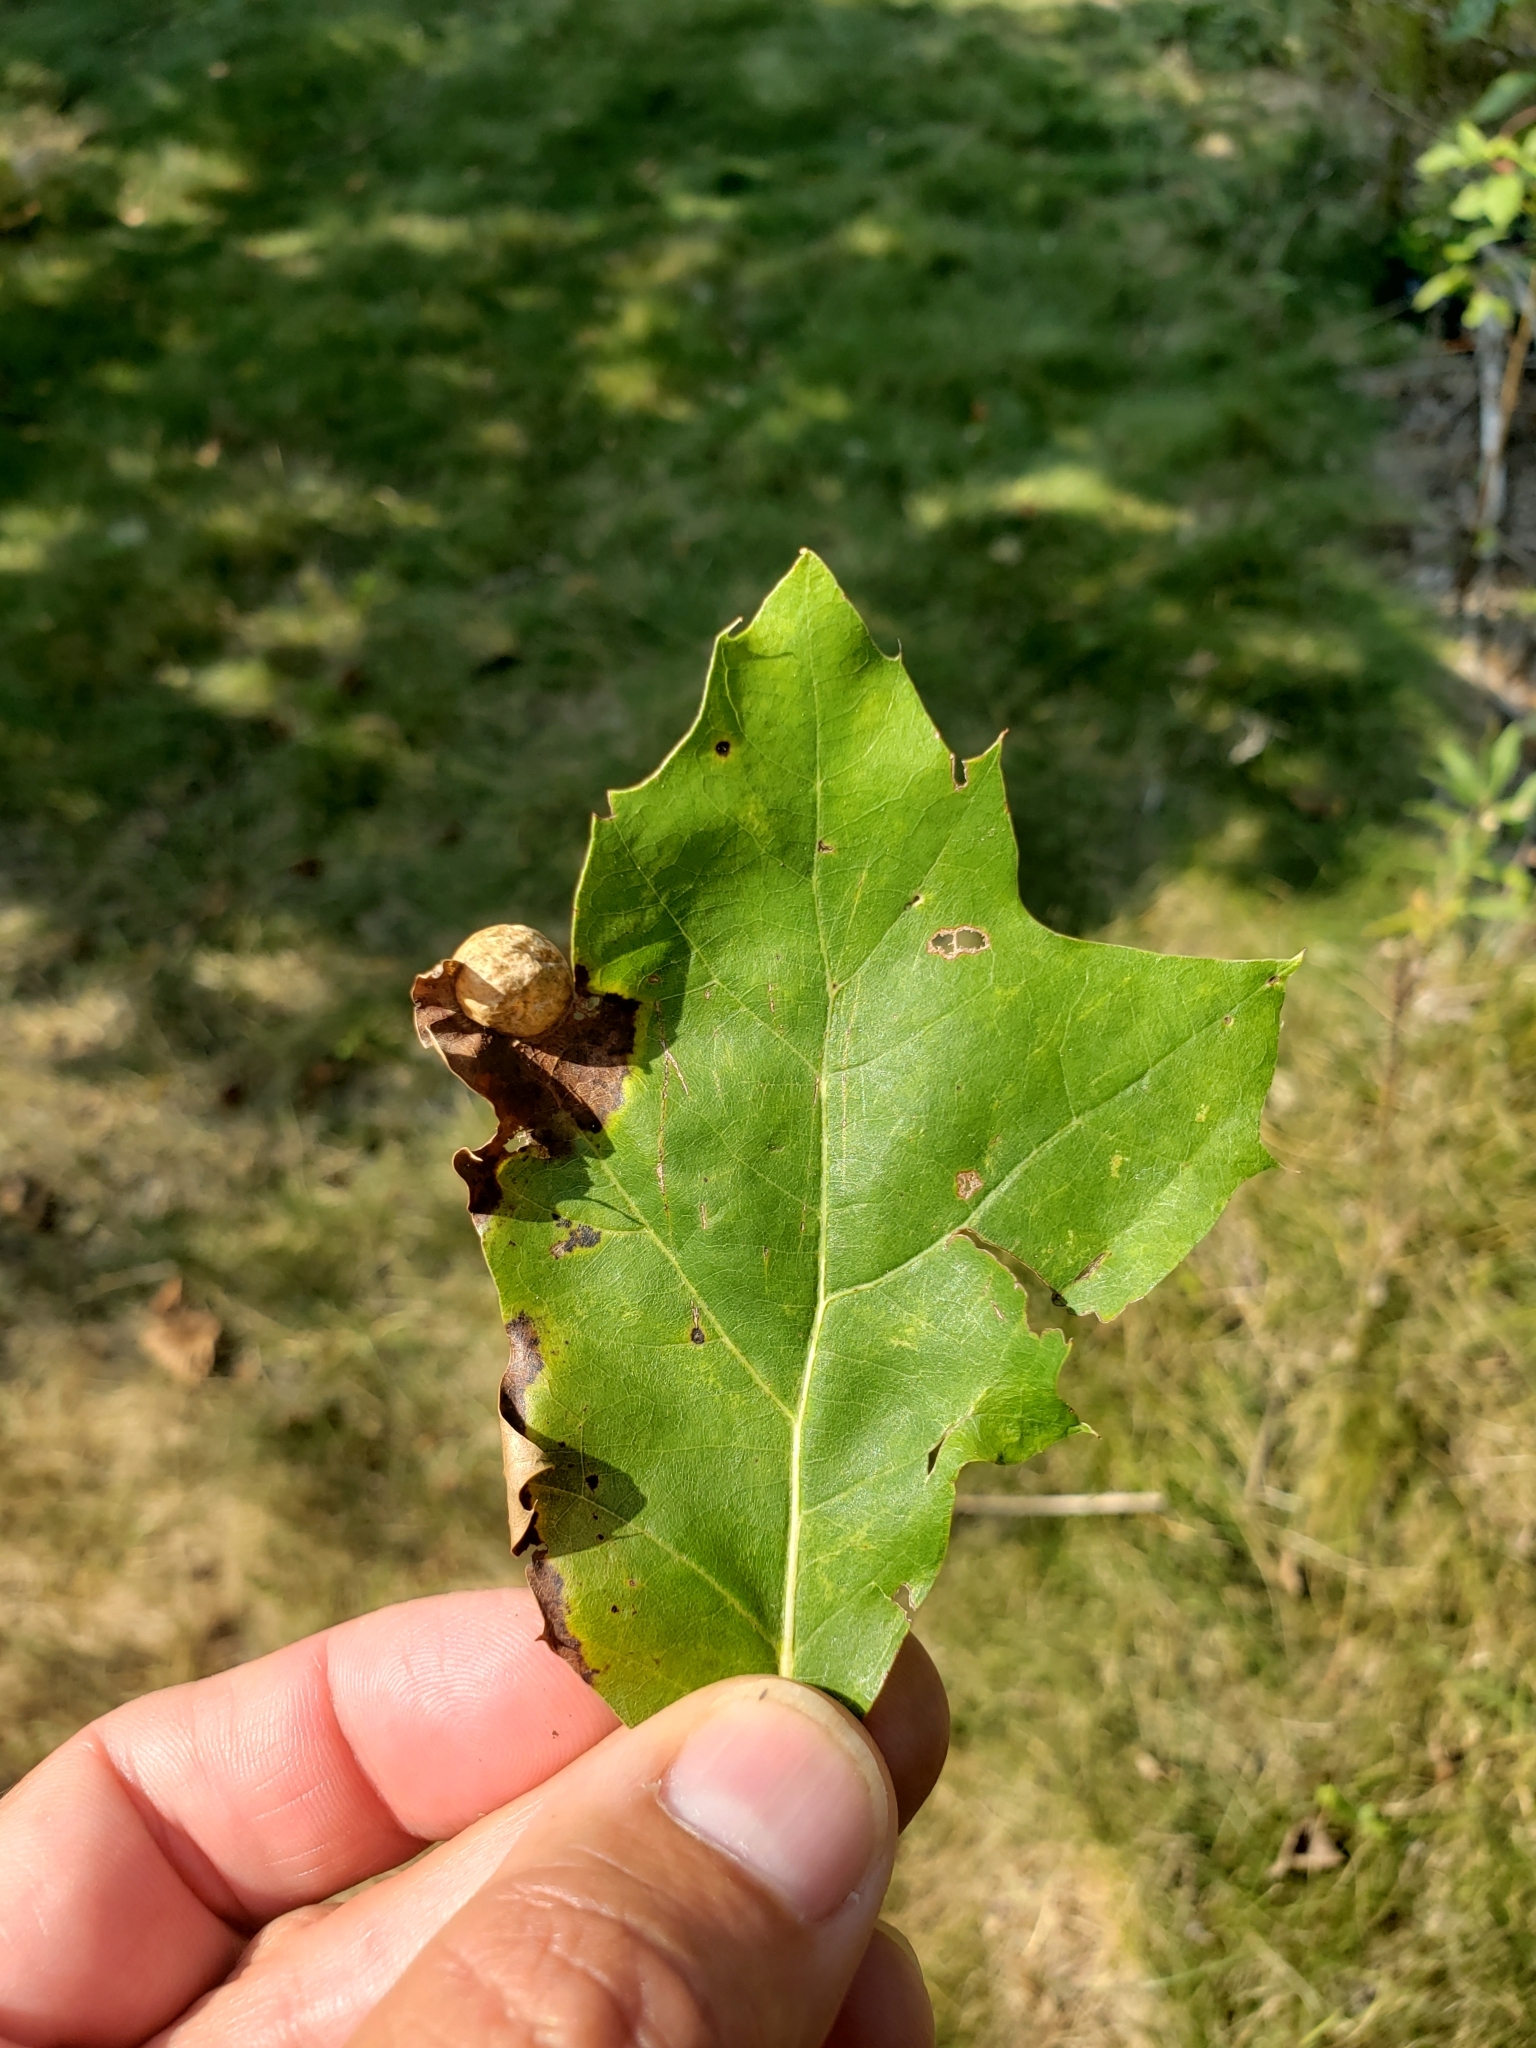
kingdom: Animalia
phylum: Arthropoda
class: Insecta
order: Hymenoptera
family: Cynipidae
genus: Amphibolips
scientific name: Amphibolips
